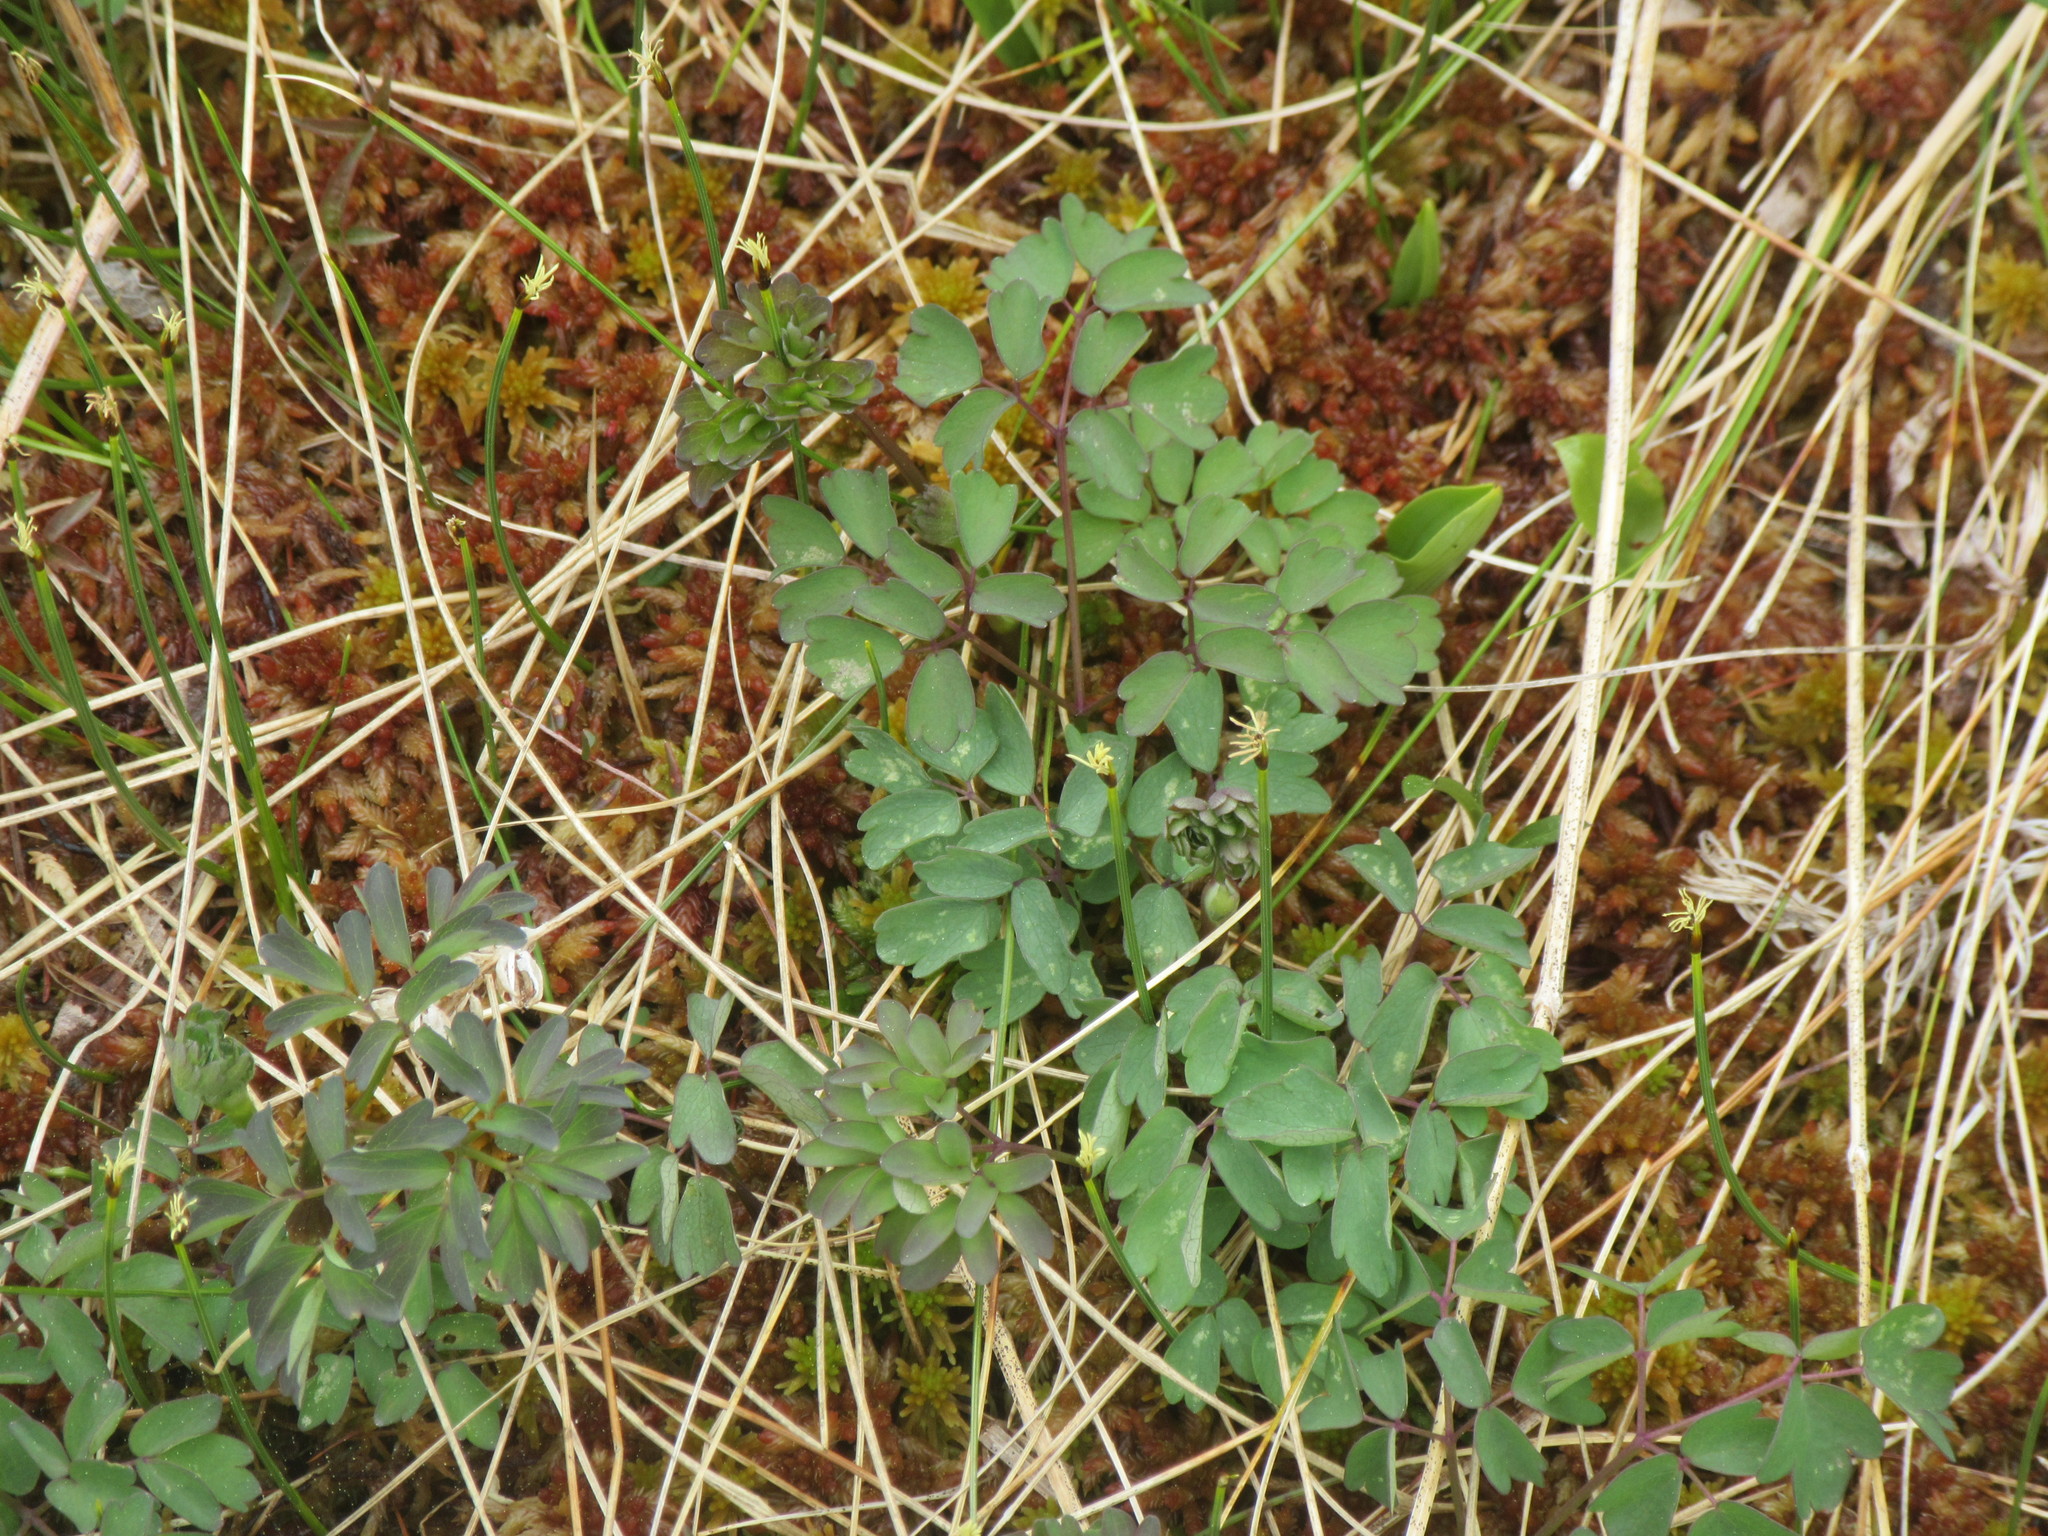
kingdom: Plantae
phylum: Tracheophyta
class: Magnoliopsida
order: Ranunculales
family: Ranunculaceae
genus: Thalictrum
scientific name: Thalictrum pubescens
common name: King-of-the-meadow
